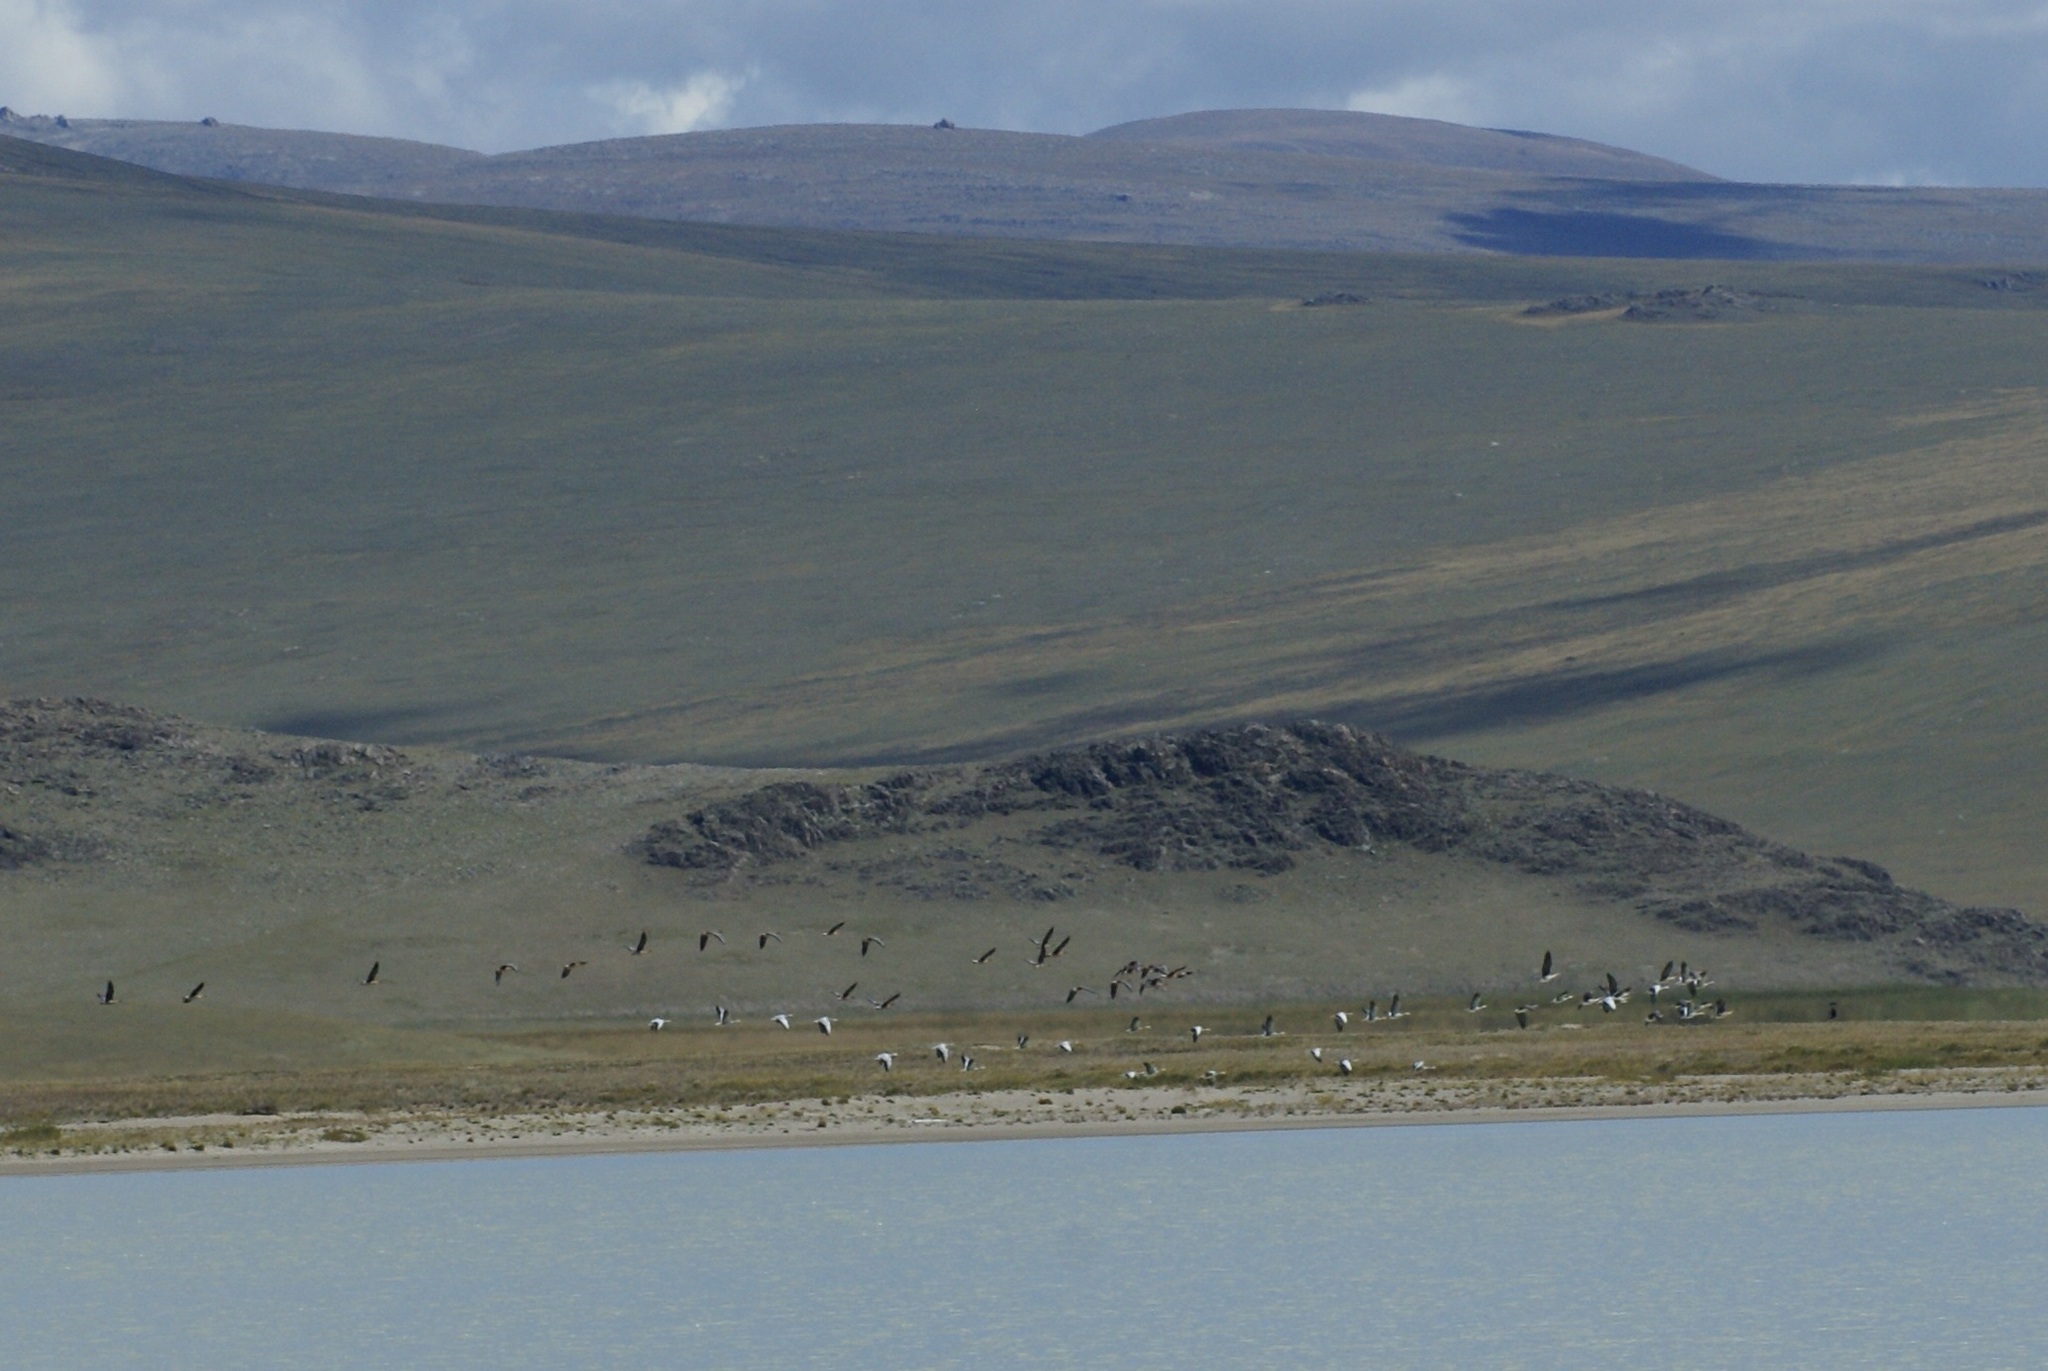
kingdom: Animalia
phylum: Chordata
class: Aves
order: Anseriformes
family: Anatidae
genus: Anser
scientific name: Anser indicus
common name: Bar-headed goose
